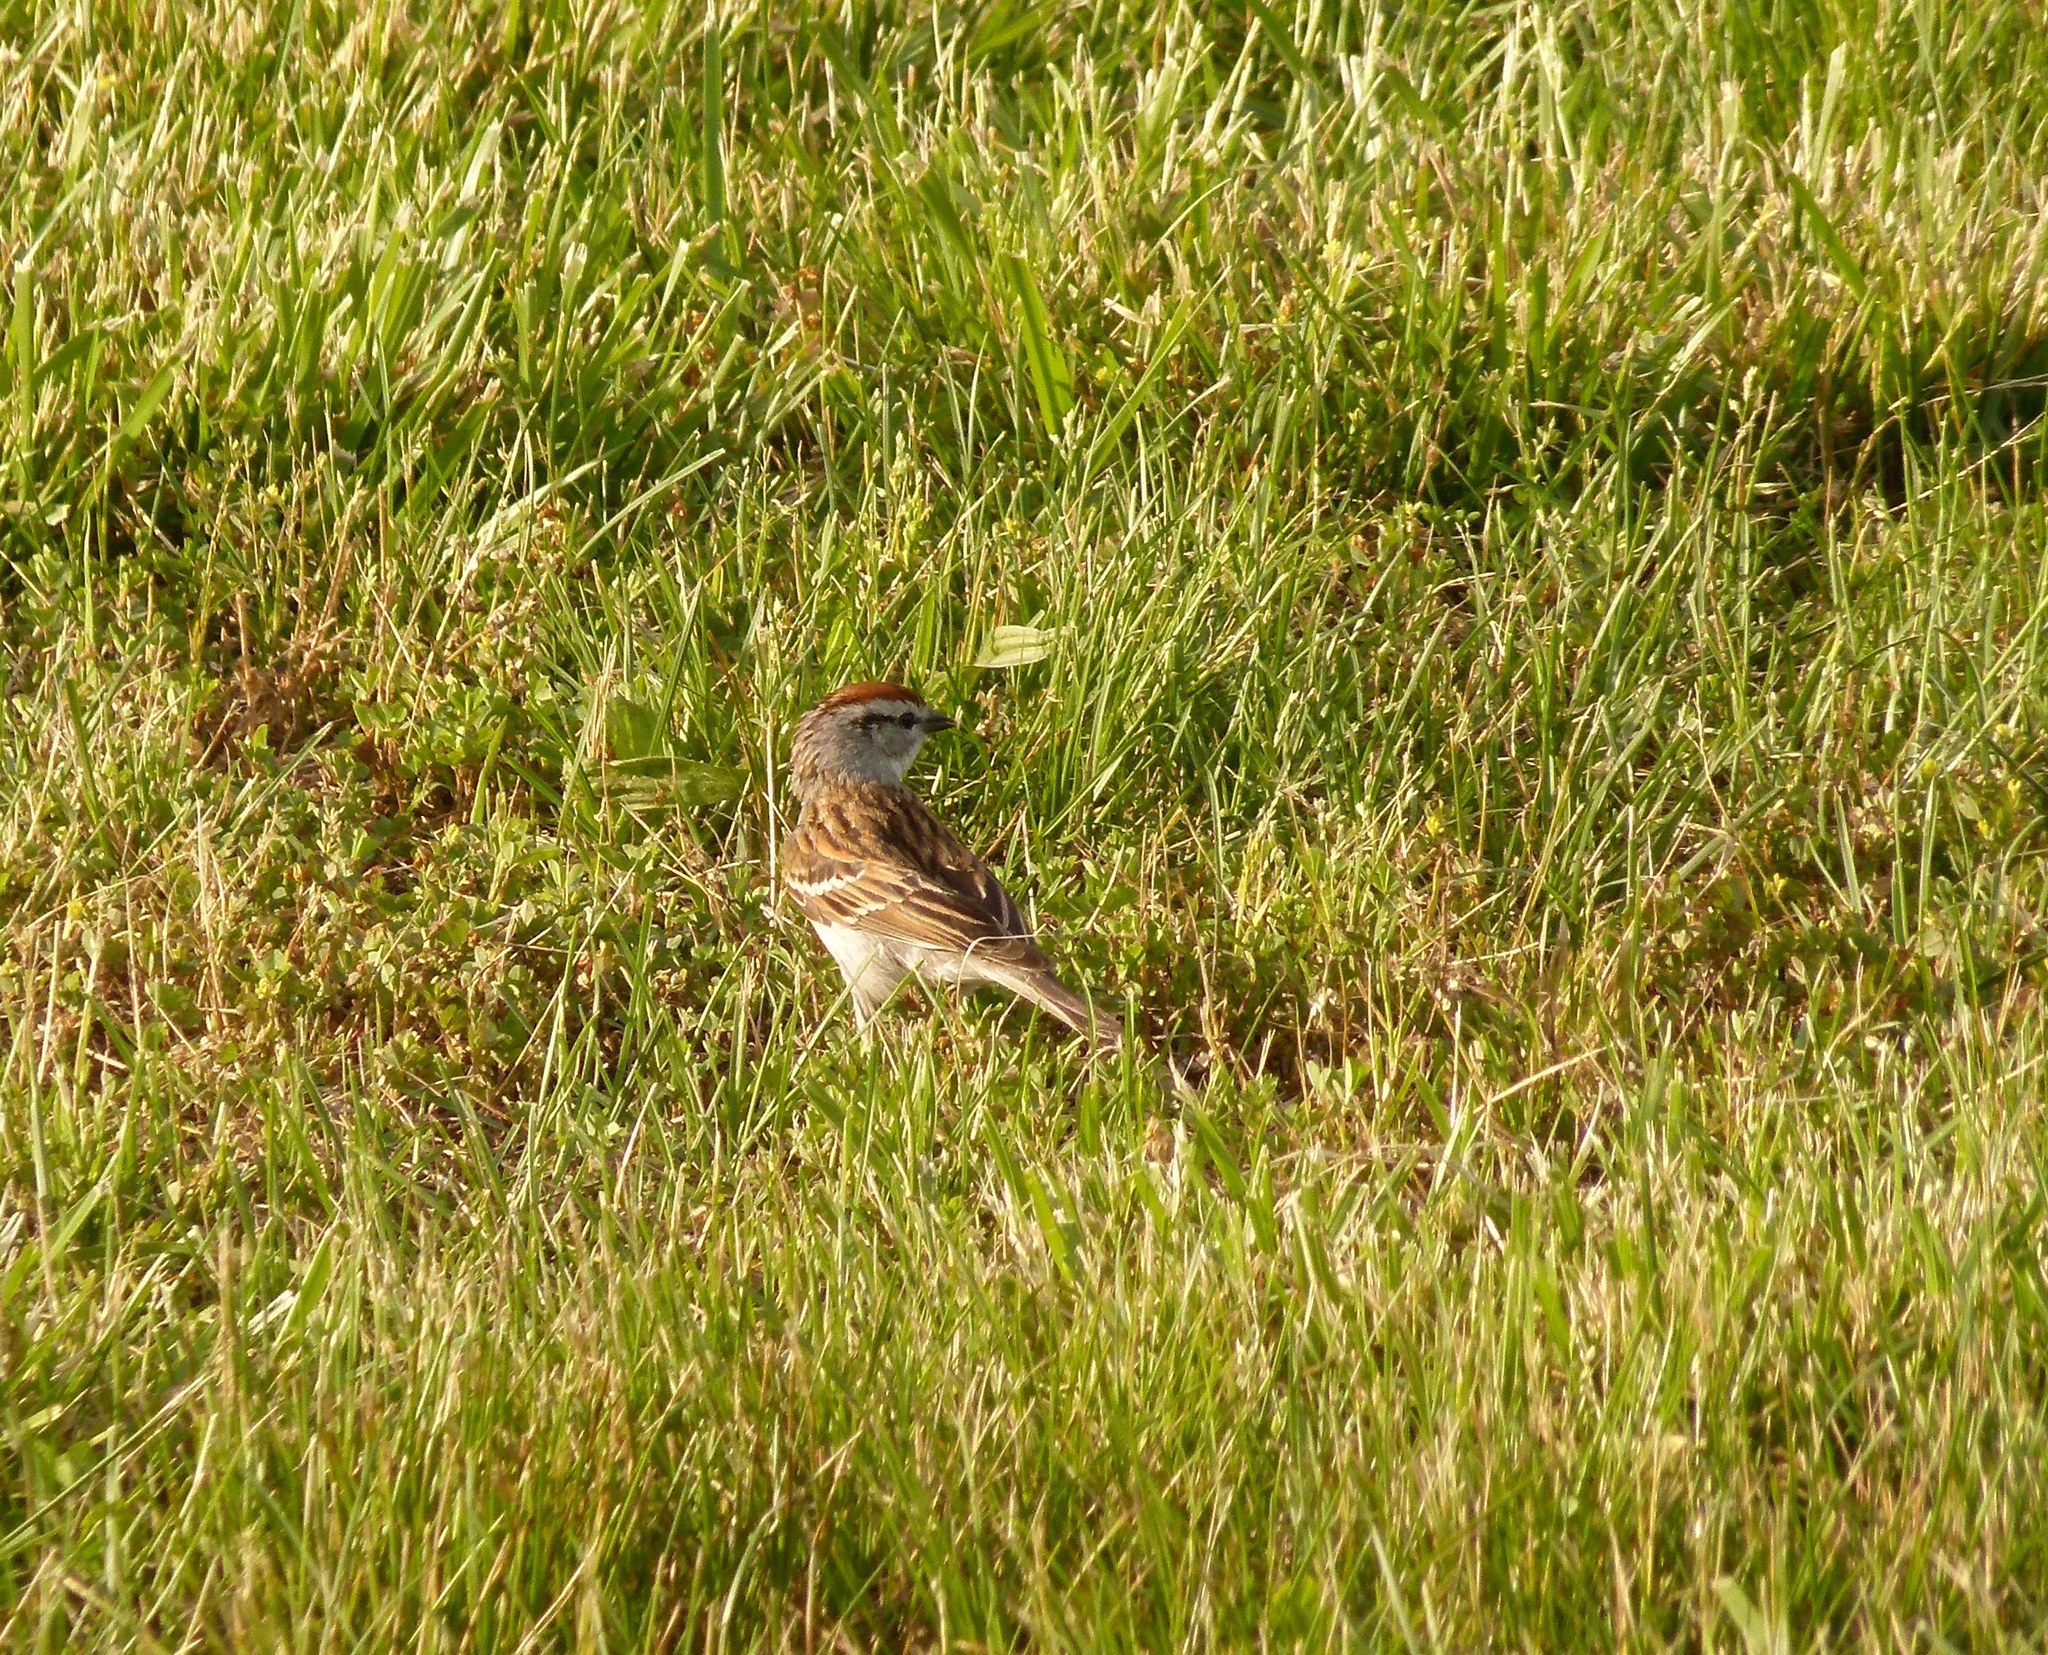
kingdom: Animalia
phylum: Chordata
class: Aves
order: Passeriformes
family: Passerellidae
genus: Spizella
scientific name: Spizella passerina
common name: Chipping sparrow
